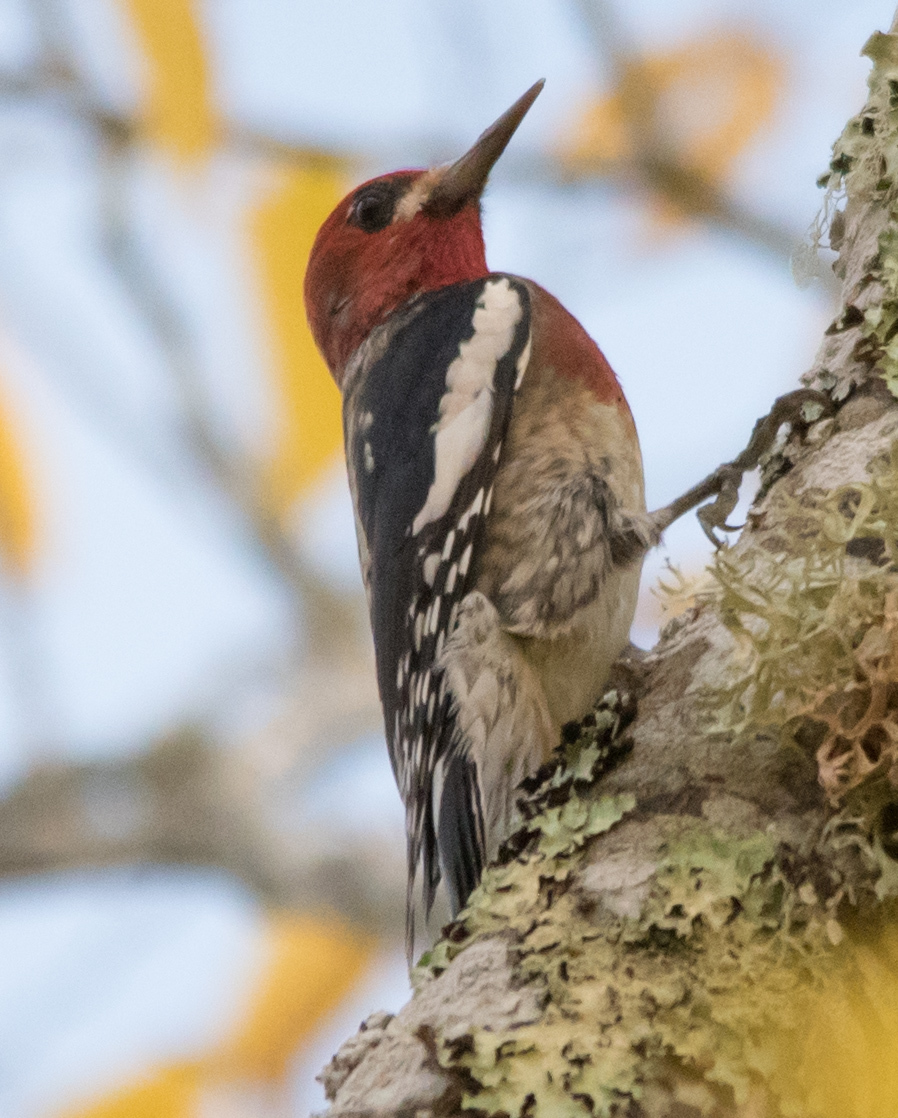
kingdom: Animalia
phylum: Chordata
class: Aves
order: Piciformes
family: Picidae
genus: Sphyrapicus
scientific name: Sphyrapicus ruber
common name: Red-breasted sapsucker
